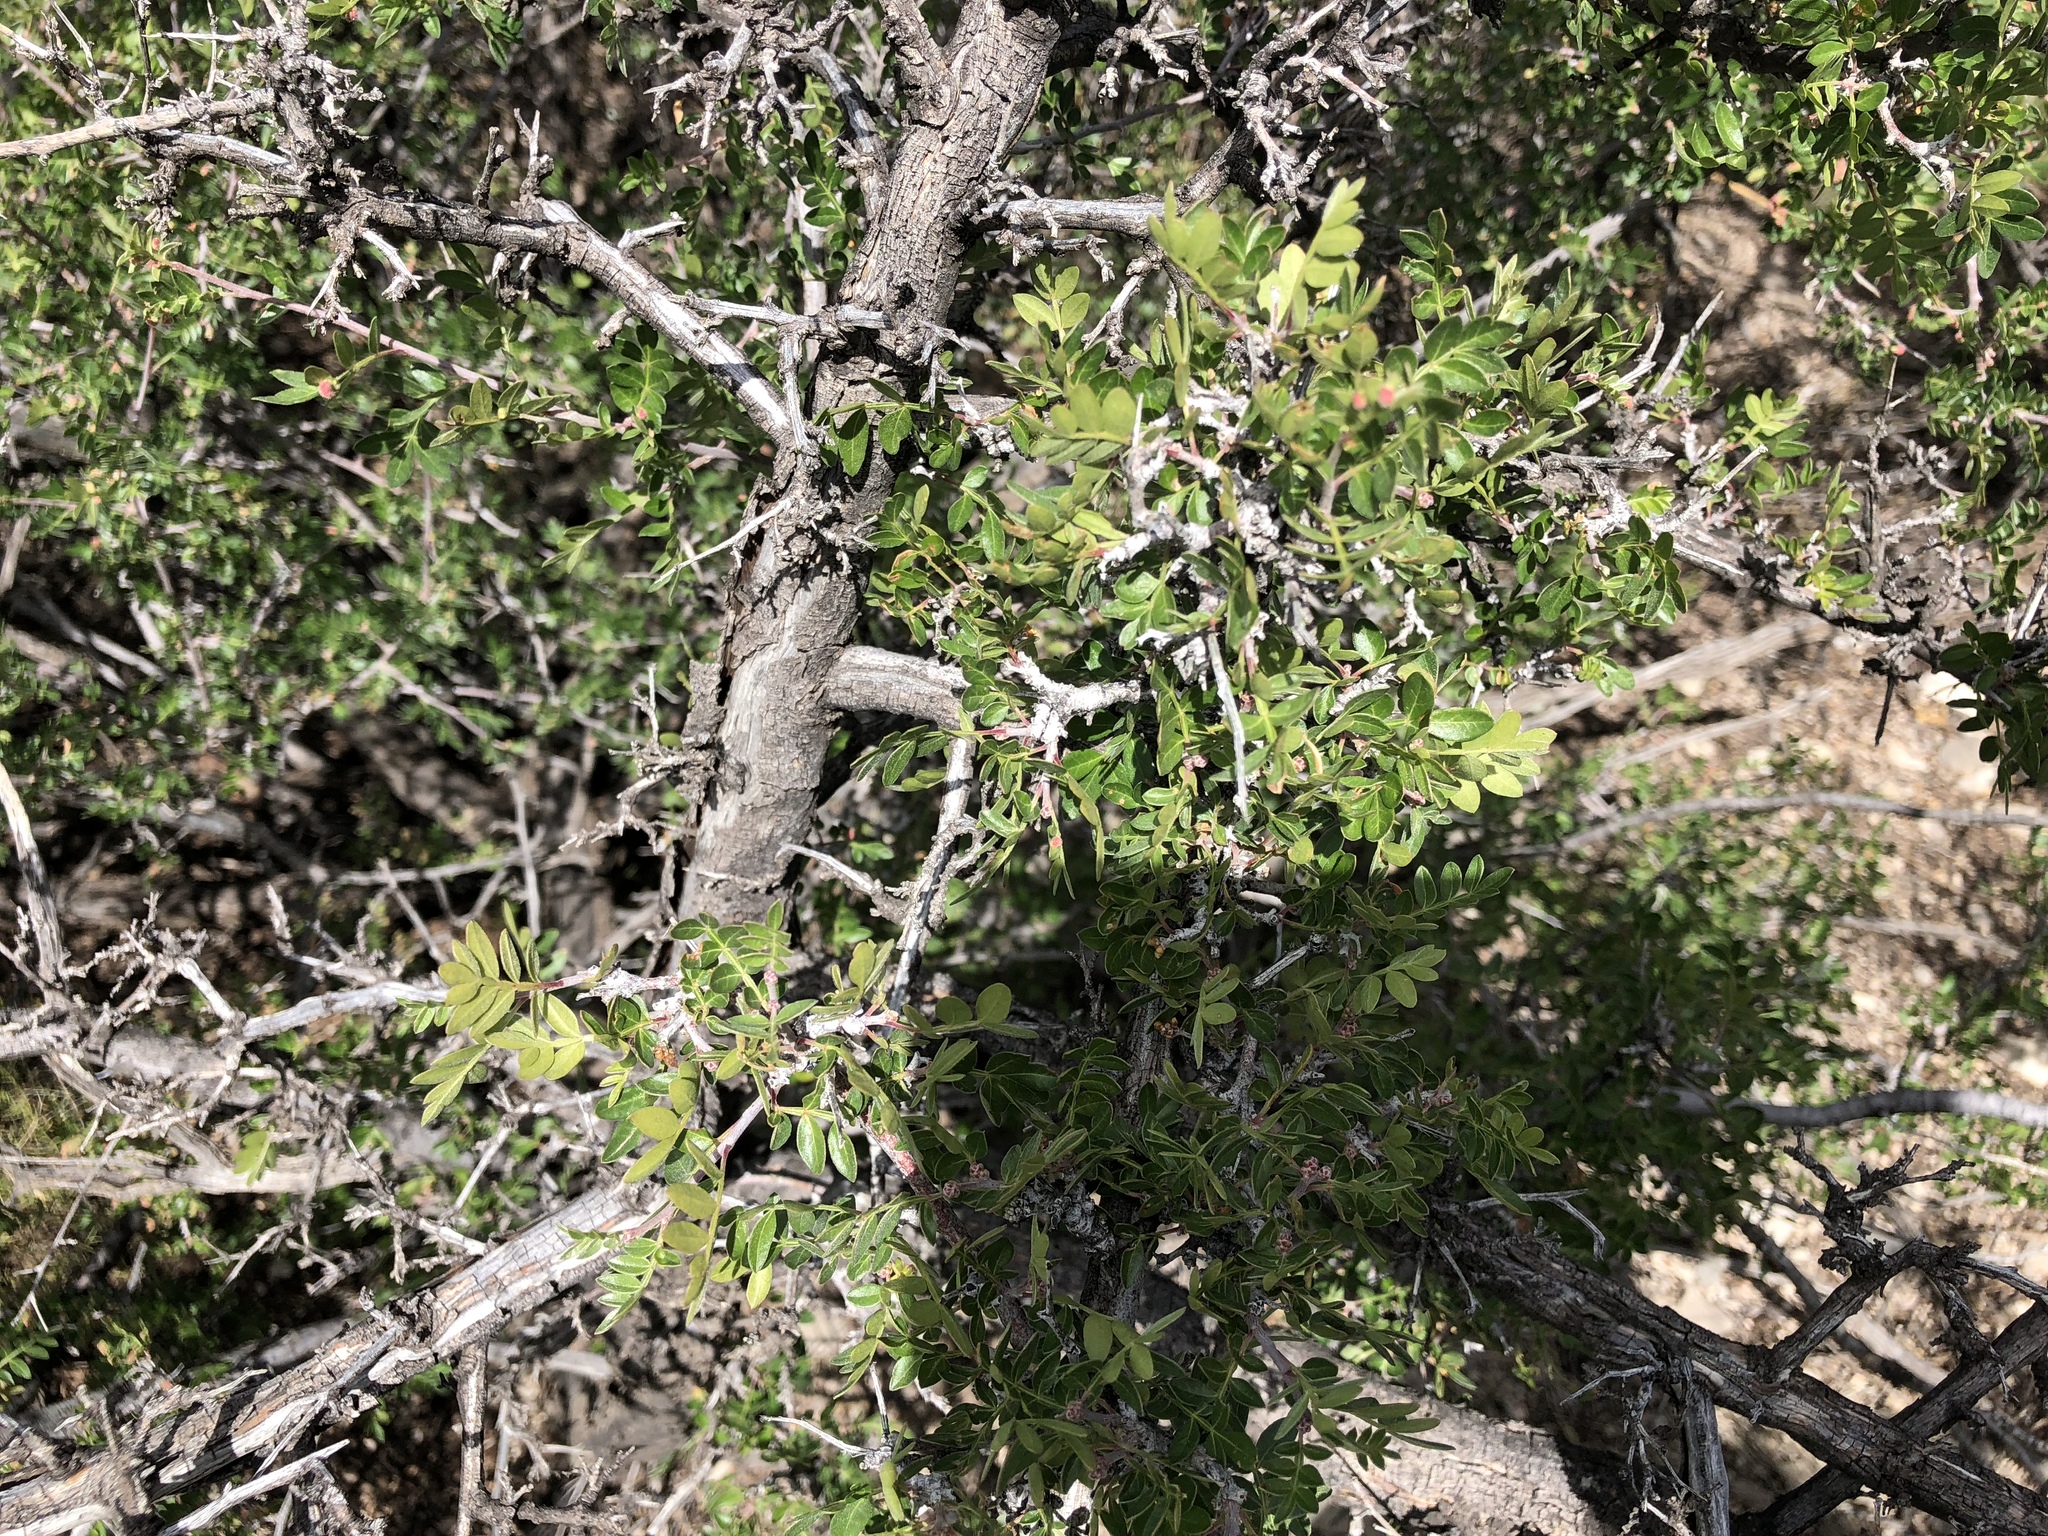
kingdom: Plantae
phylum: Tracheophyta
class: Magnoliopsida
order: Sapindales
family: Anacardiaceae
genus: Rhus
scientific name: Rhus microphylla
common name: Desert sumac
